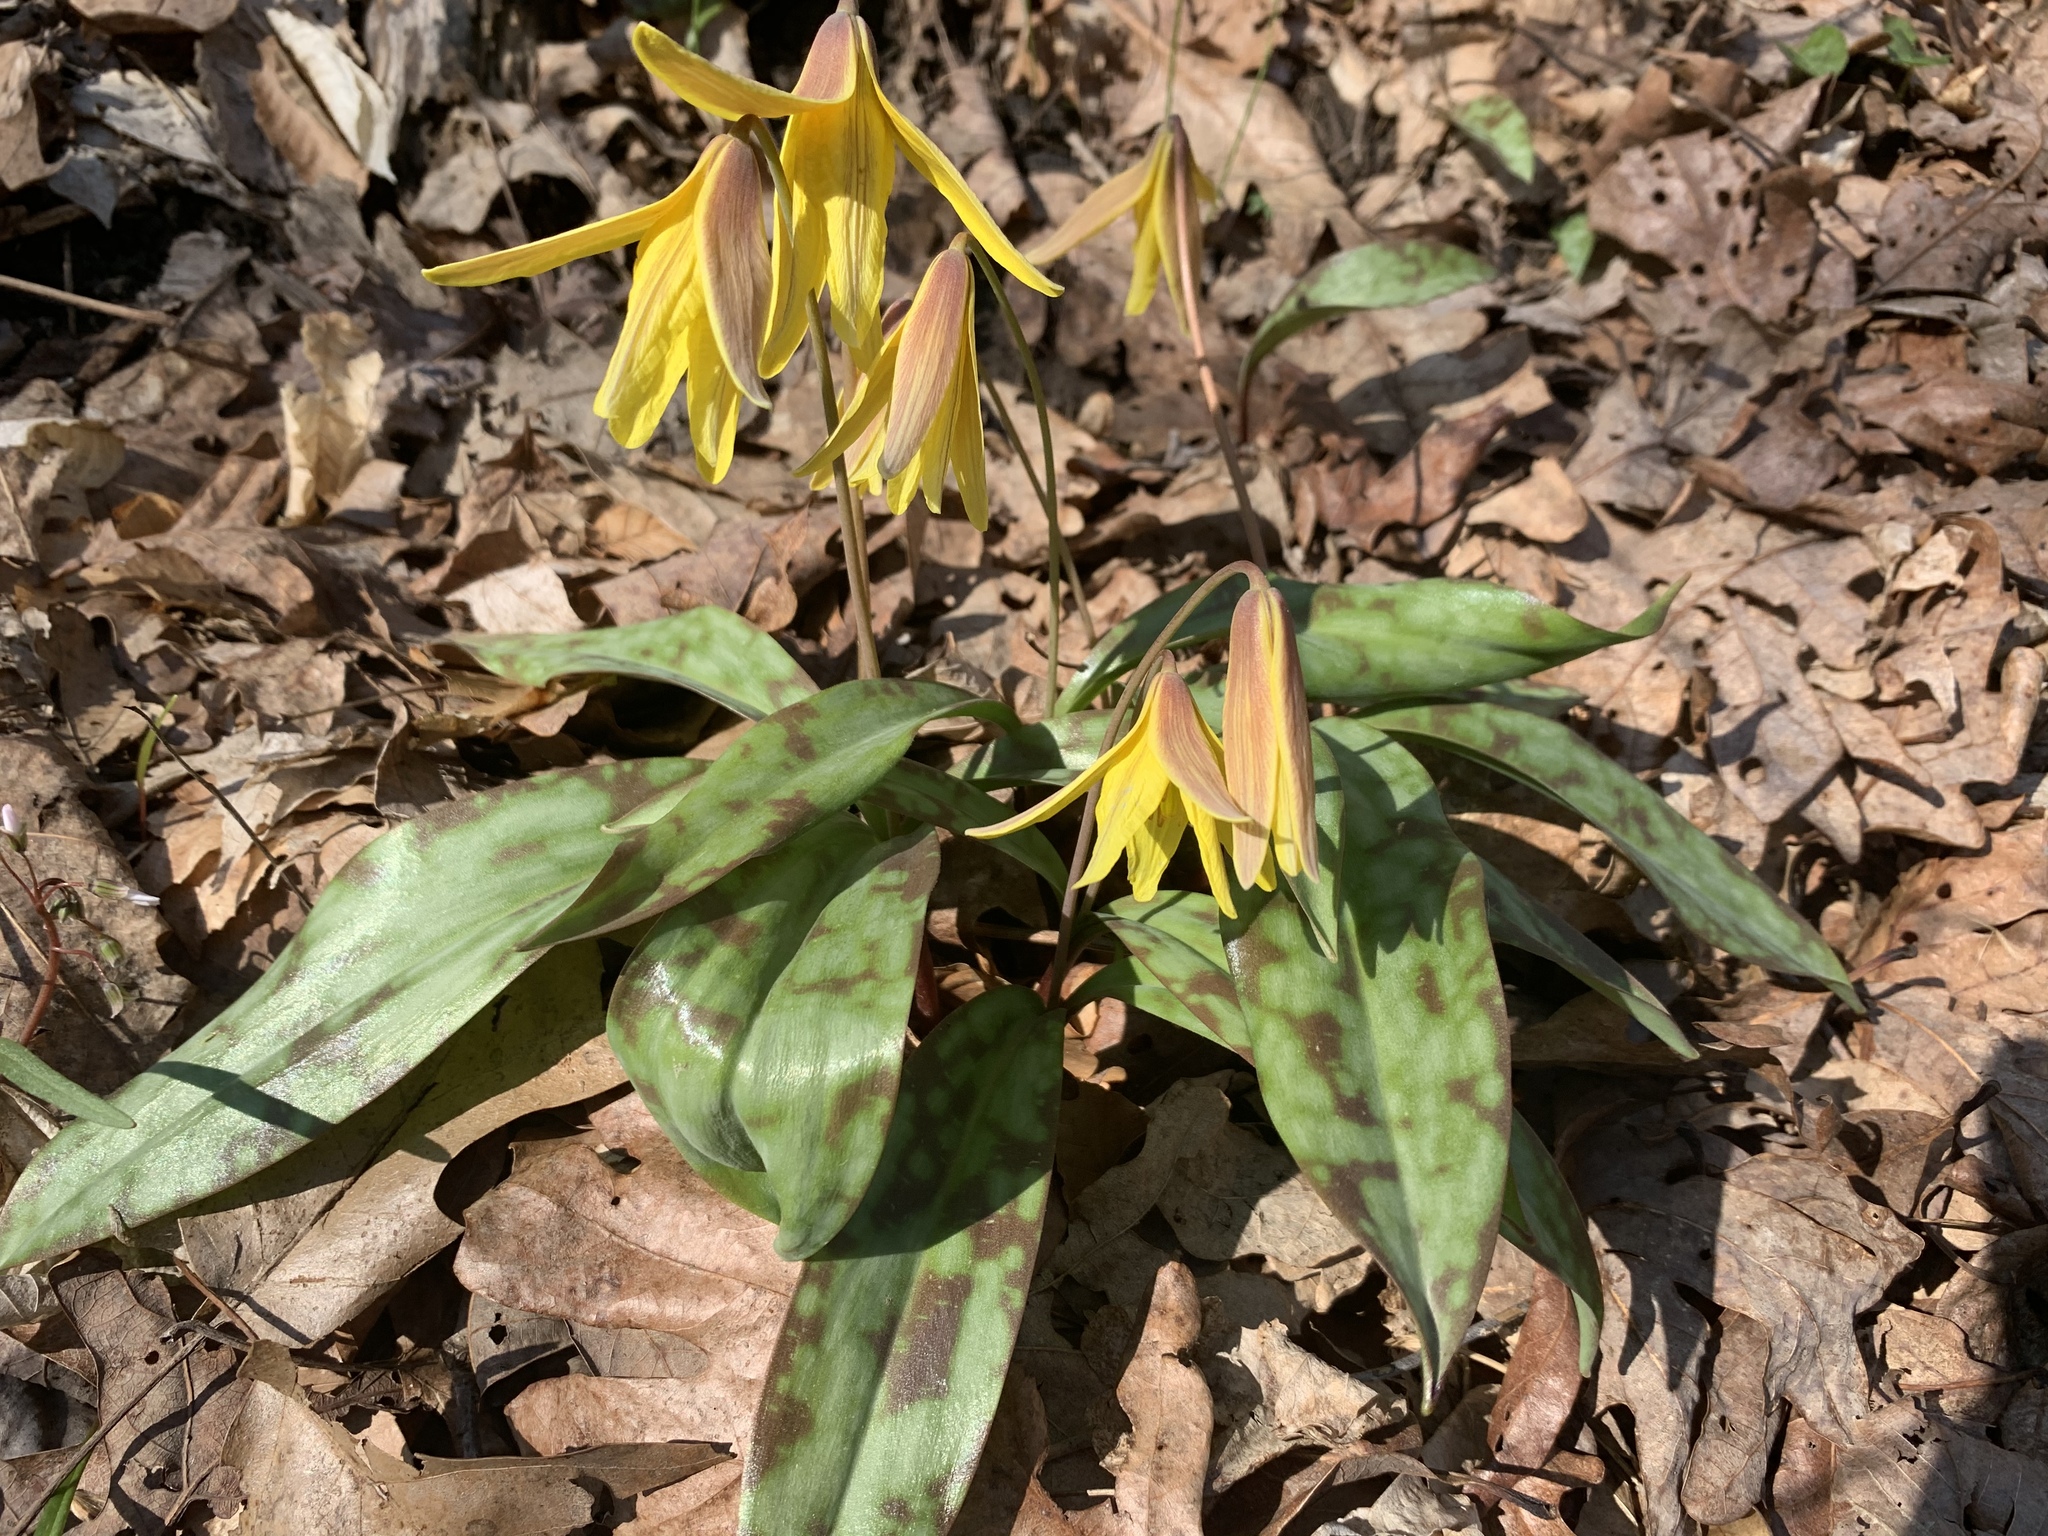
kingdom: Plantae
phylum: Tracheophyta
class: Liliopsida
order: Liliales
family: Liliaceae
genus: Erythronium
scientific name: Erythronium americanum
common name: Yellow adder's-tongue
